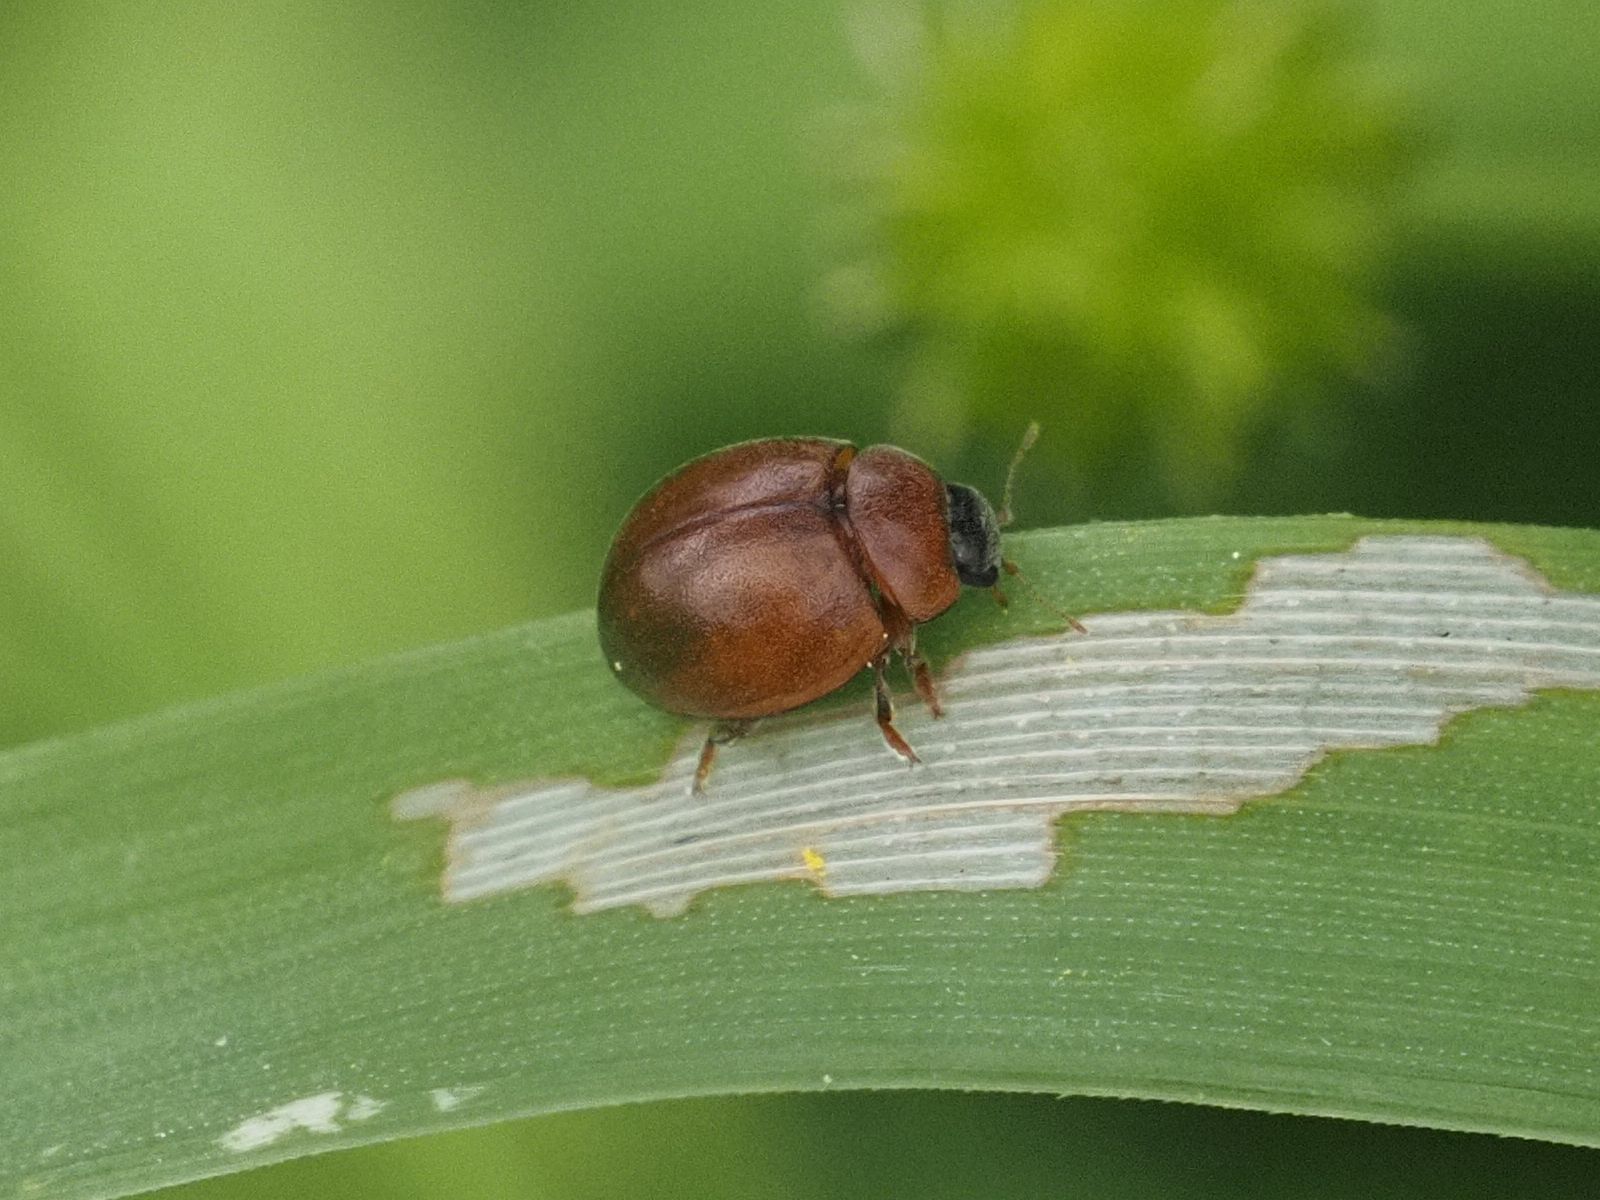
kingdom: Animalia
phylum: Arthropoda
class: Insecta
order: Coleoptera
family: Coccinellidae
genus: Cynegetis
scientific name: Cynegetis impunctata
